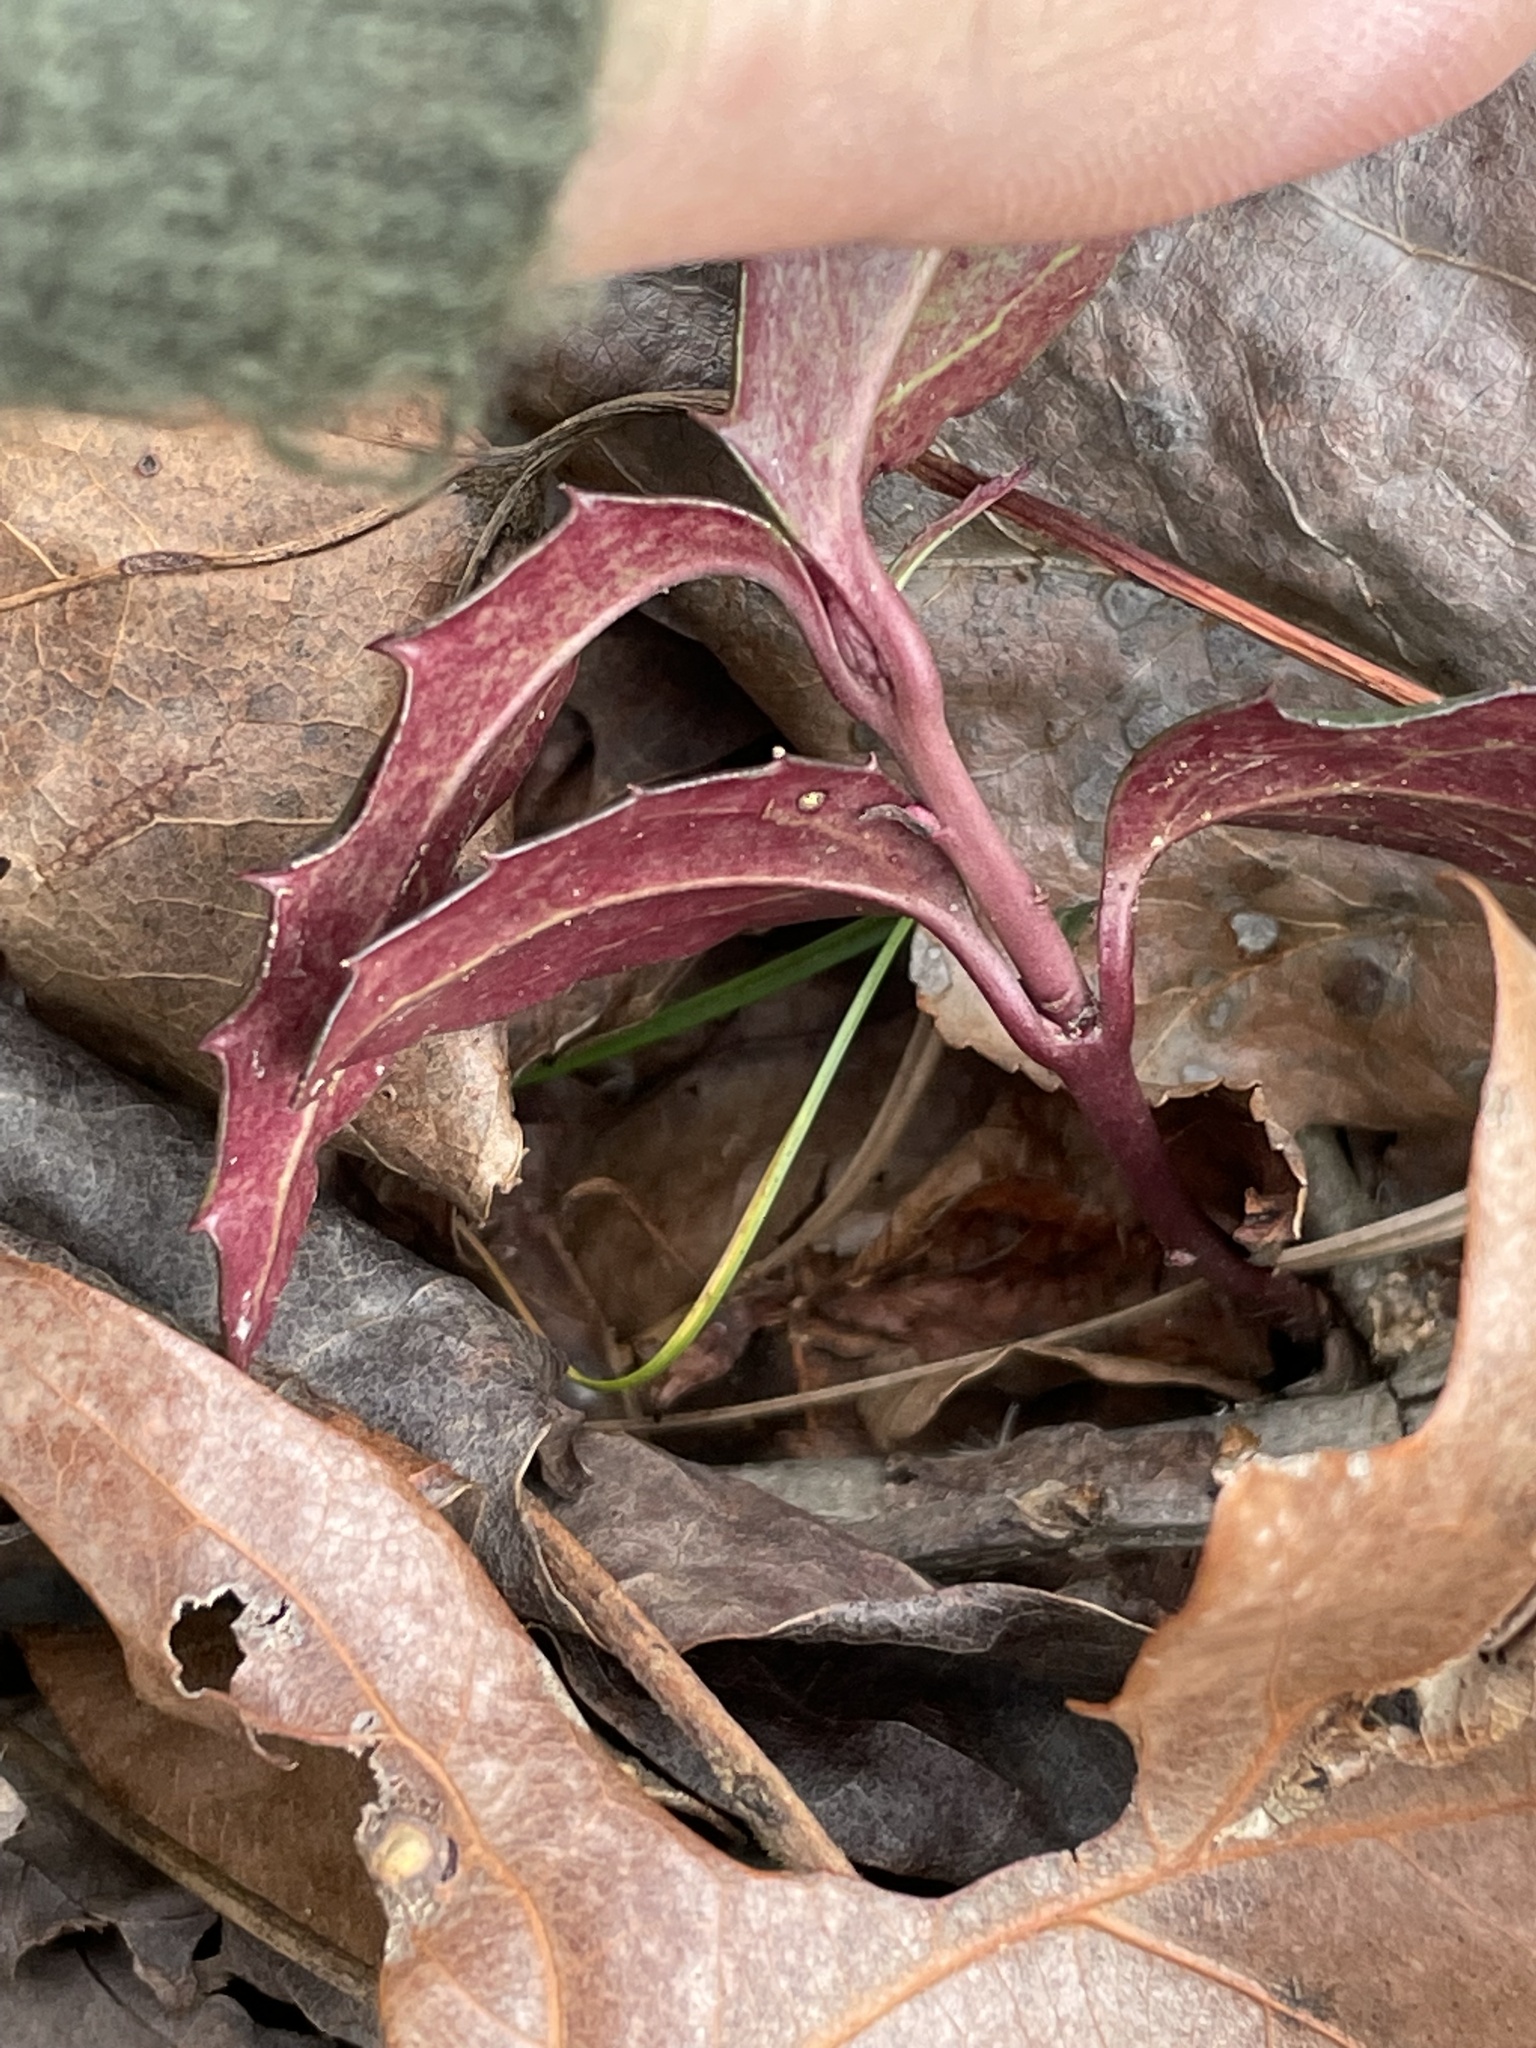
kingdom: Plantae
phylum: Tracheophyta
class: Magnoliopsida
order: Ericales
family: Ericaceae
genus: Chimaphila
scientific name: Chimaphila maculata
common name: Spotted pipsissewa
